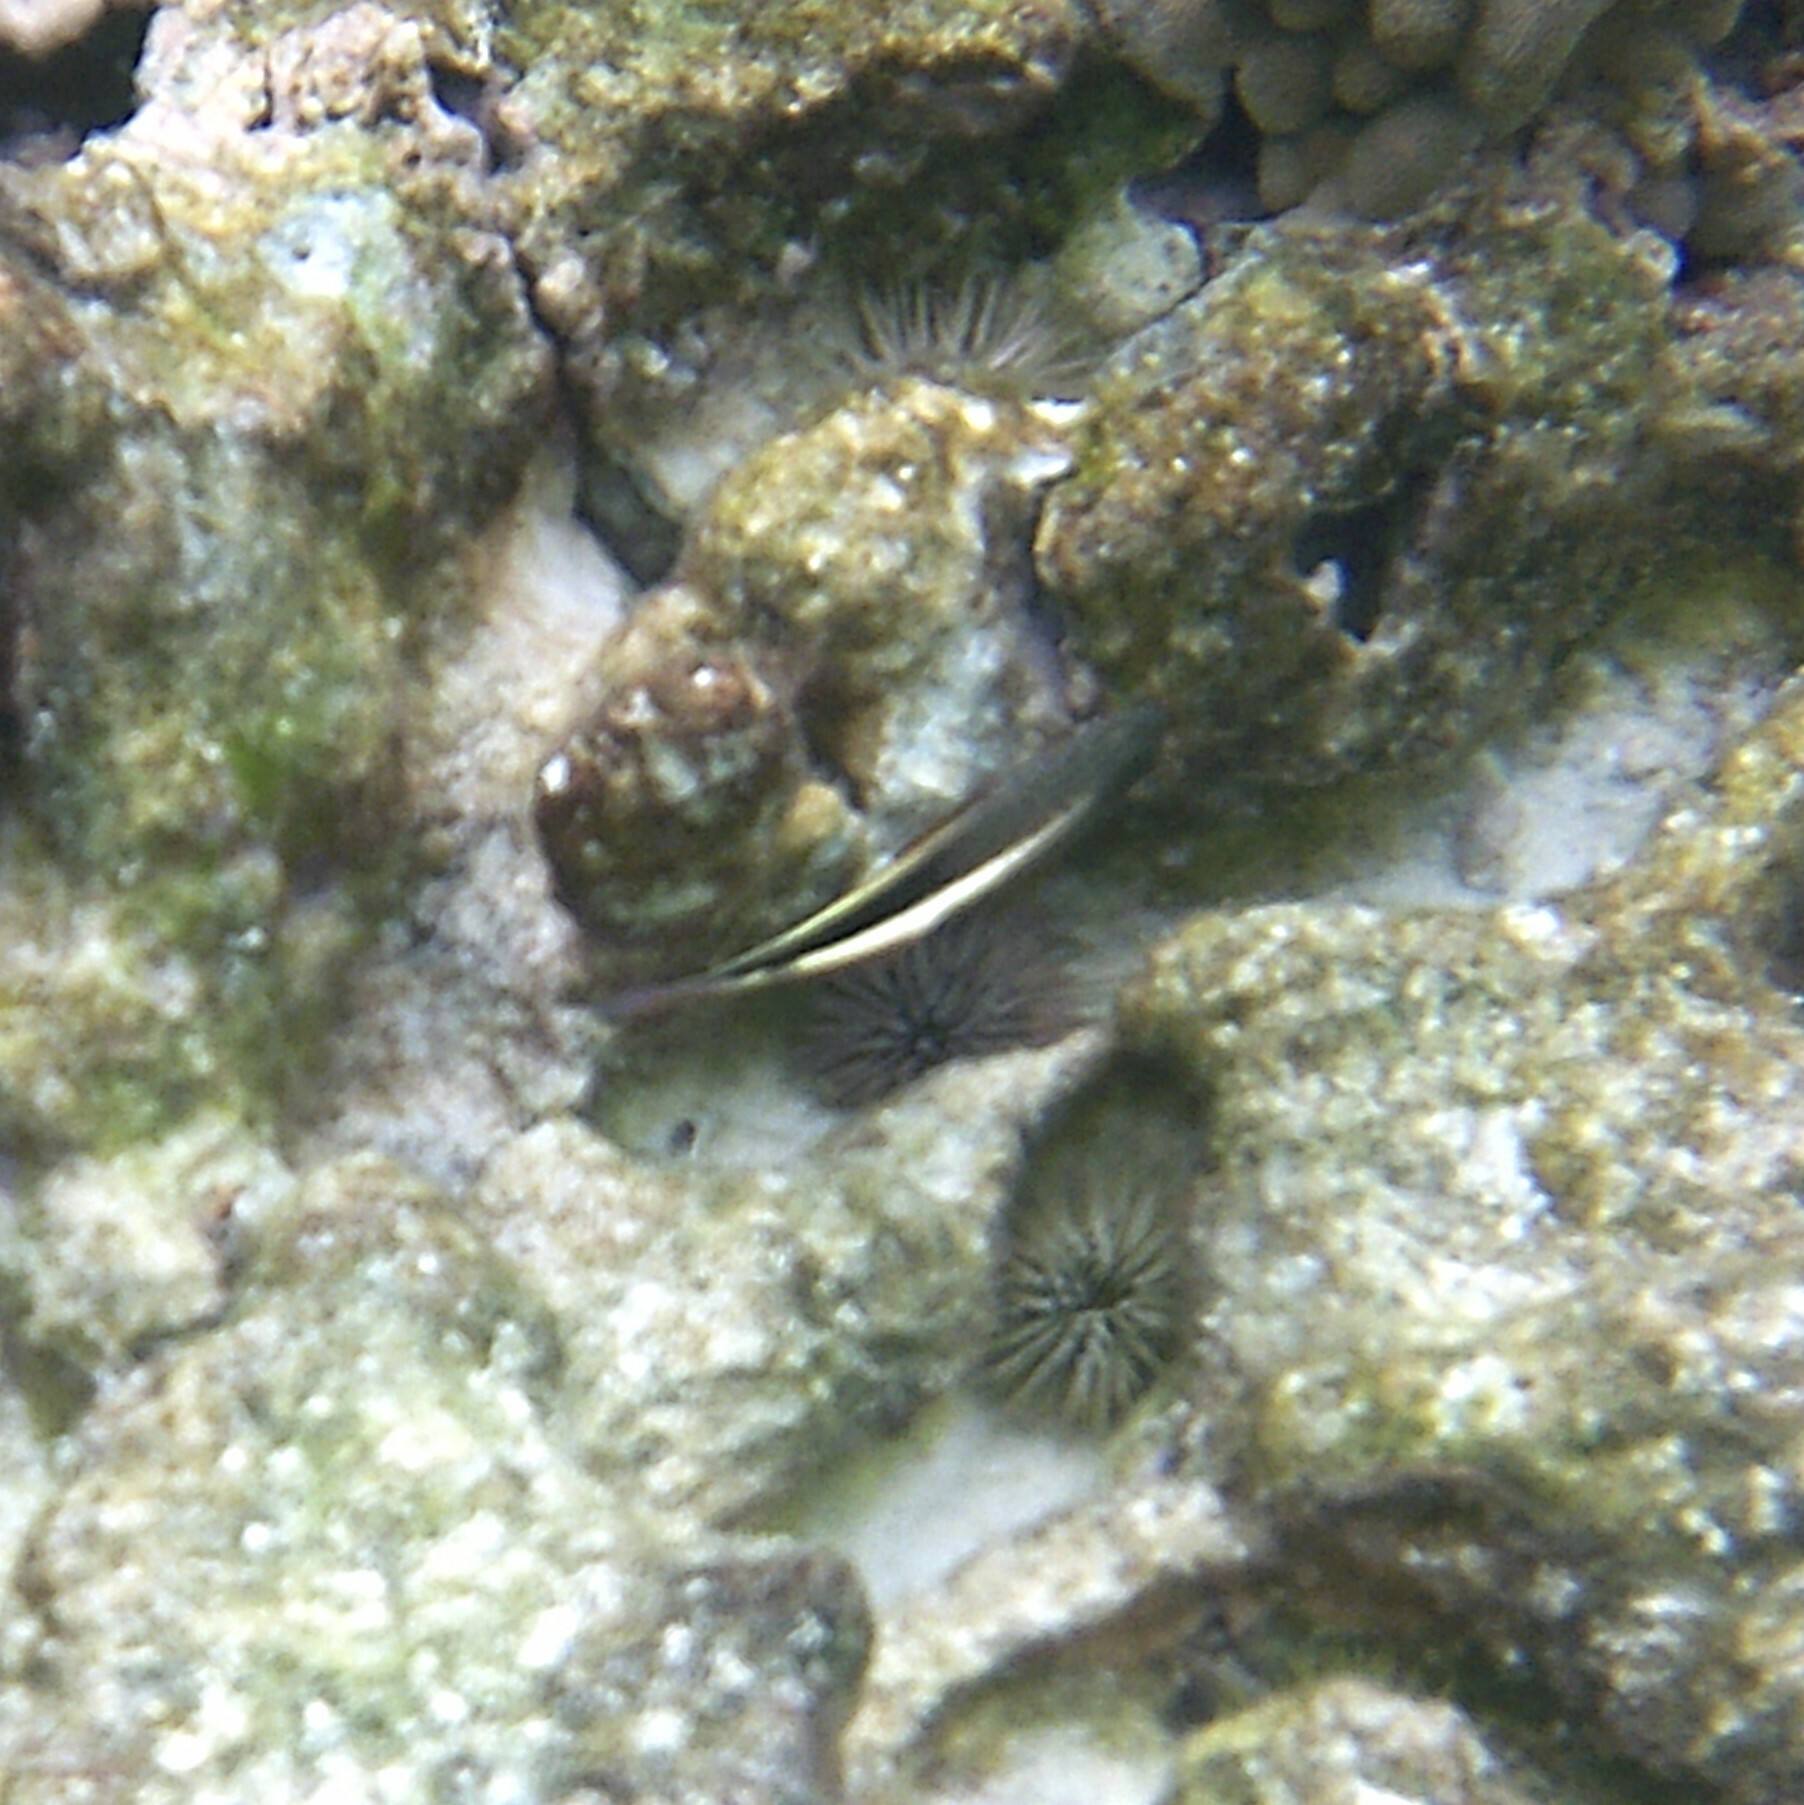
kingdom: Animalia
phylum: Chordata
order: Perciformes
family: Cirrhitidae
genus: Paracirrhites
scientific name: Paracirrhites forsteri
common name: Freckled hawkfish
